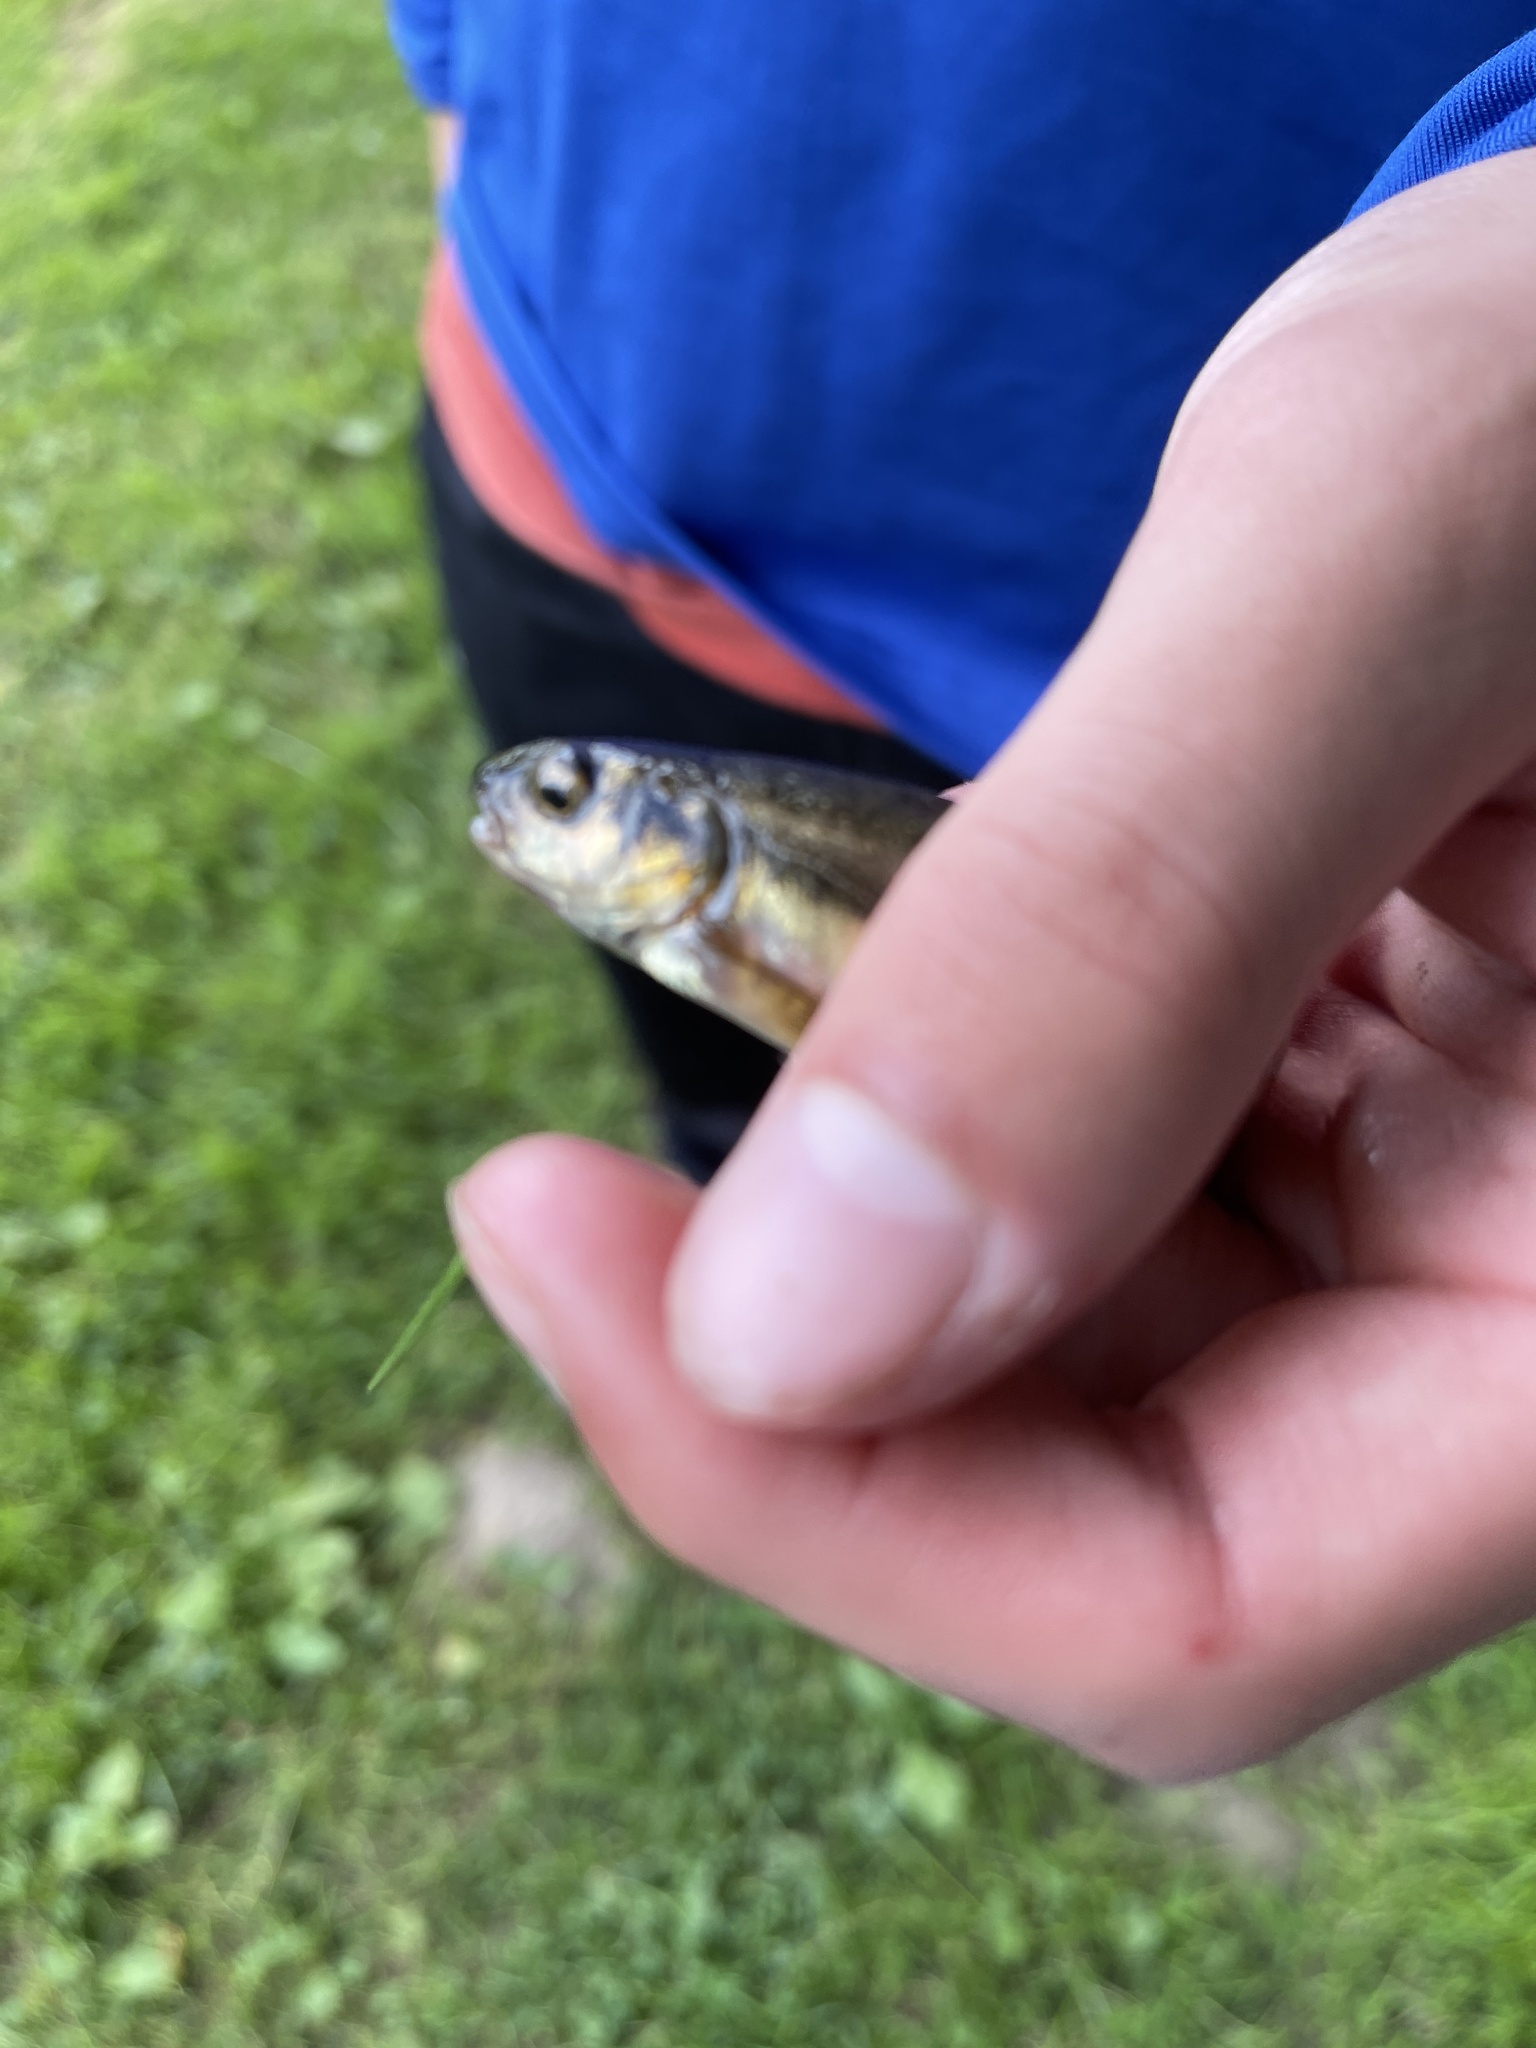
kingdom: Animalia
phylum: Chordata
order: Cypriniformes
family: Cyprinidae
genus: Phoxinus
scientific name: Phoxinus phoxinus
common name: Minnow
